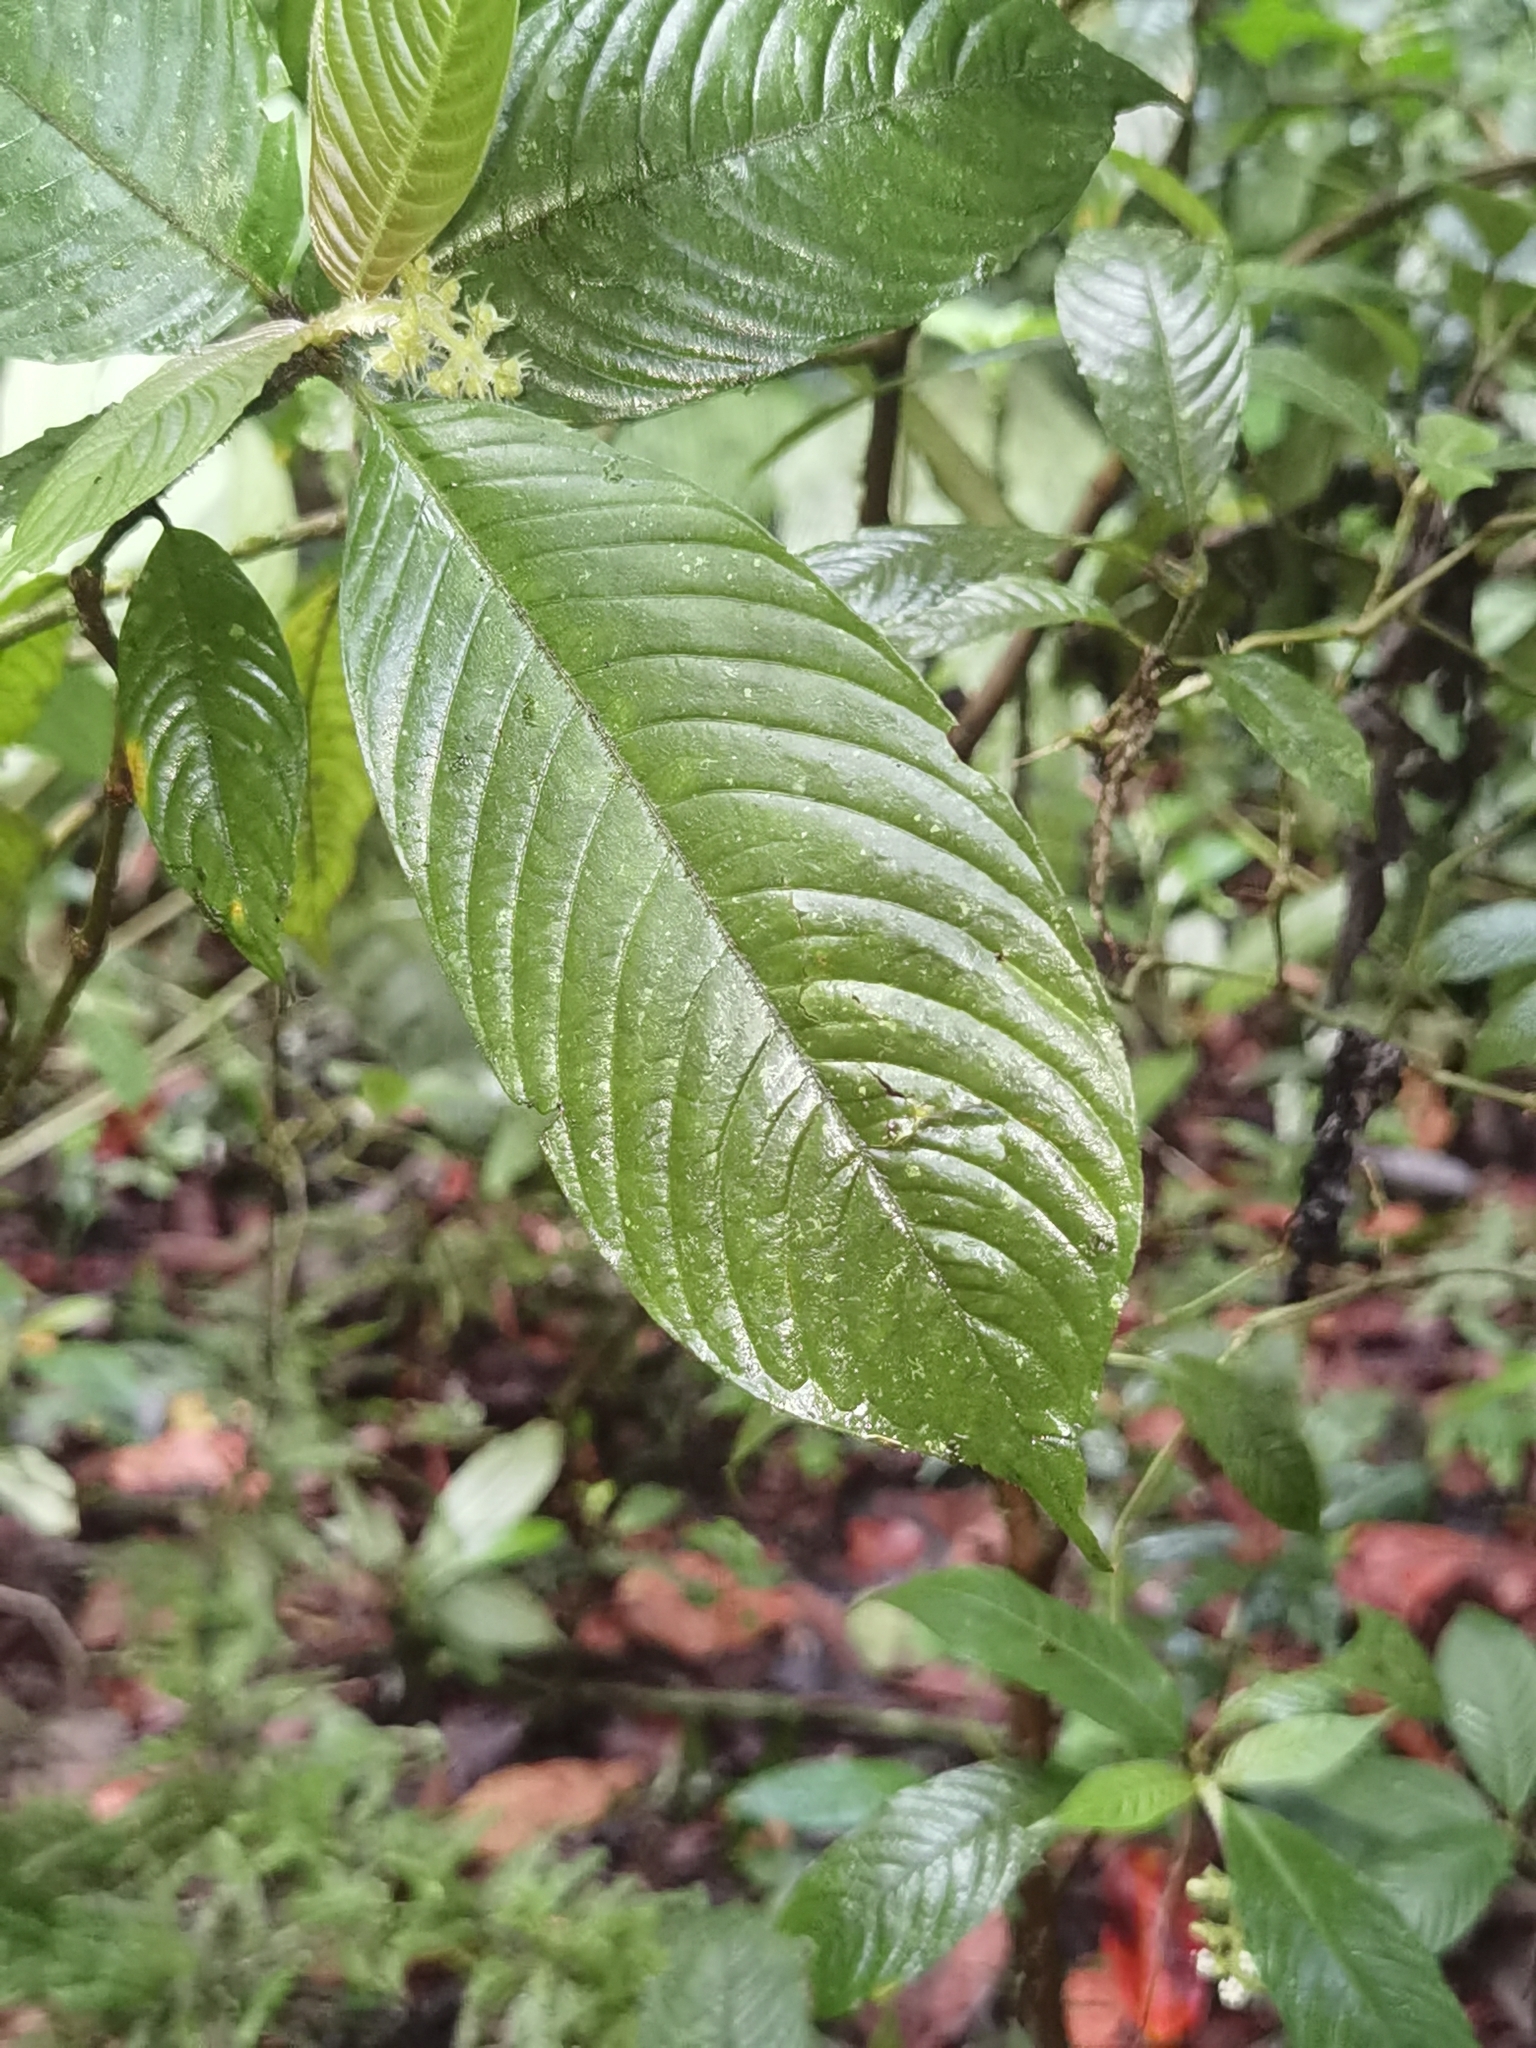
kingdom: Plantae
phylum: Tracheophyta
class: Magnoliopsida
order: Gentianales
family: Rubiaceae
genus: Palicourea
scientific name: Palicourea acicularis
